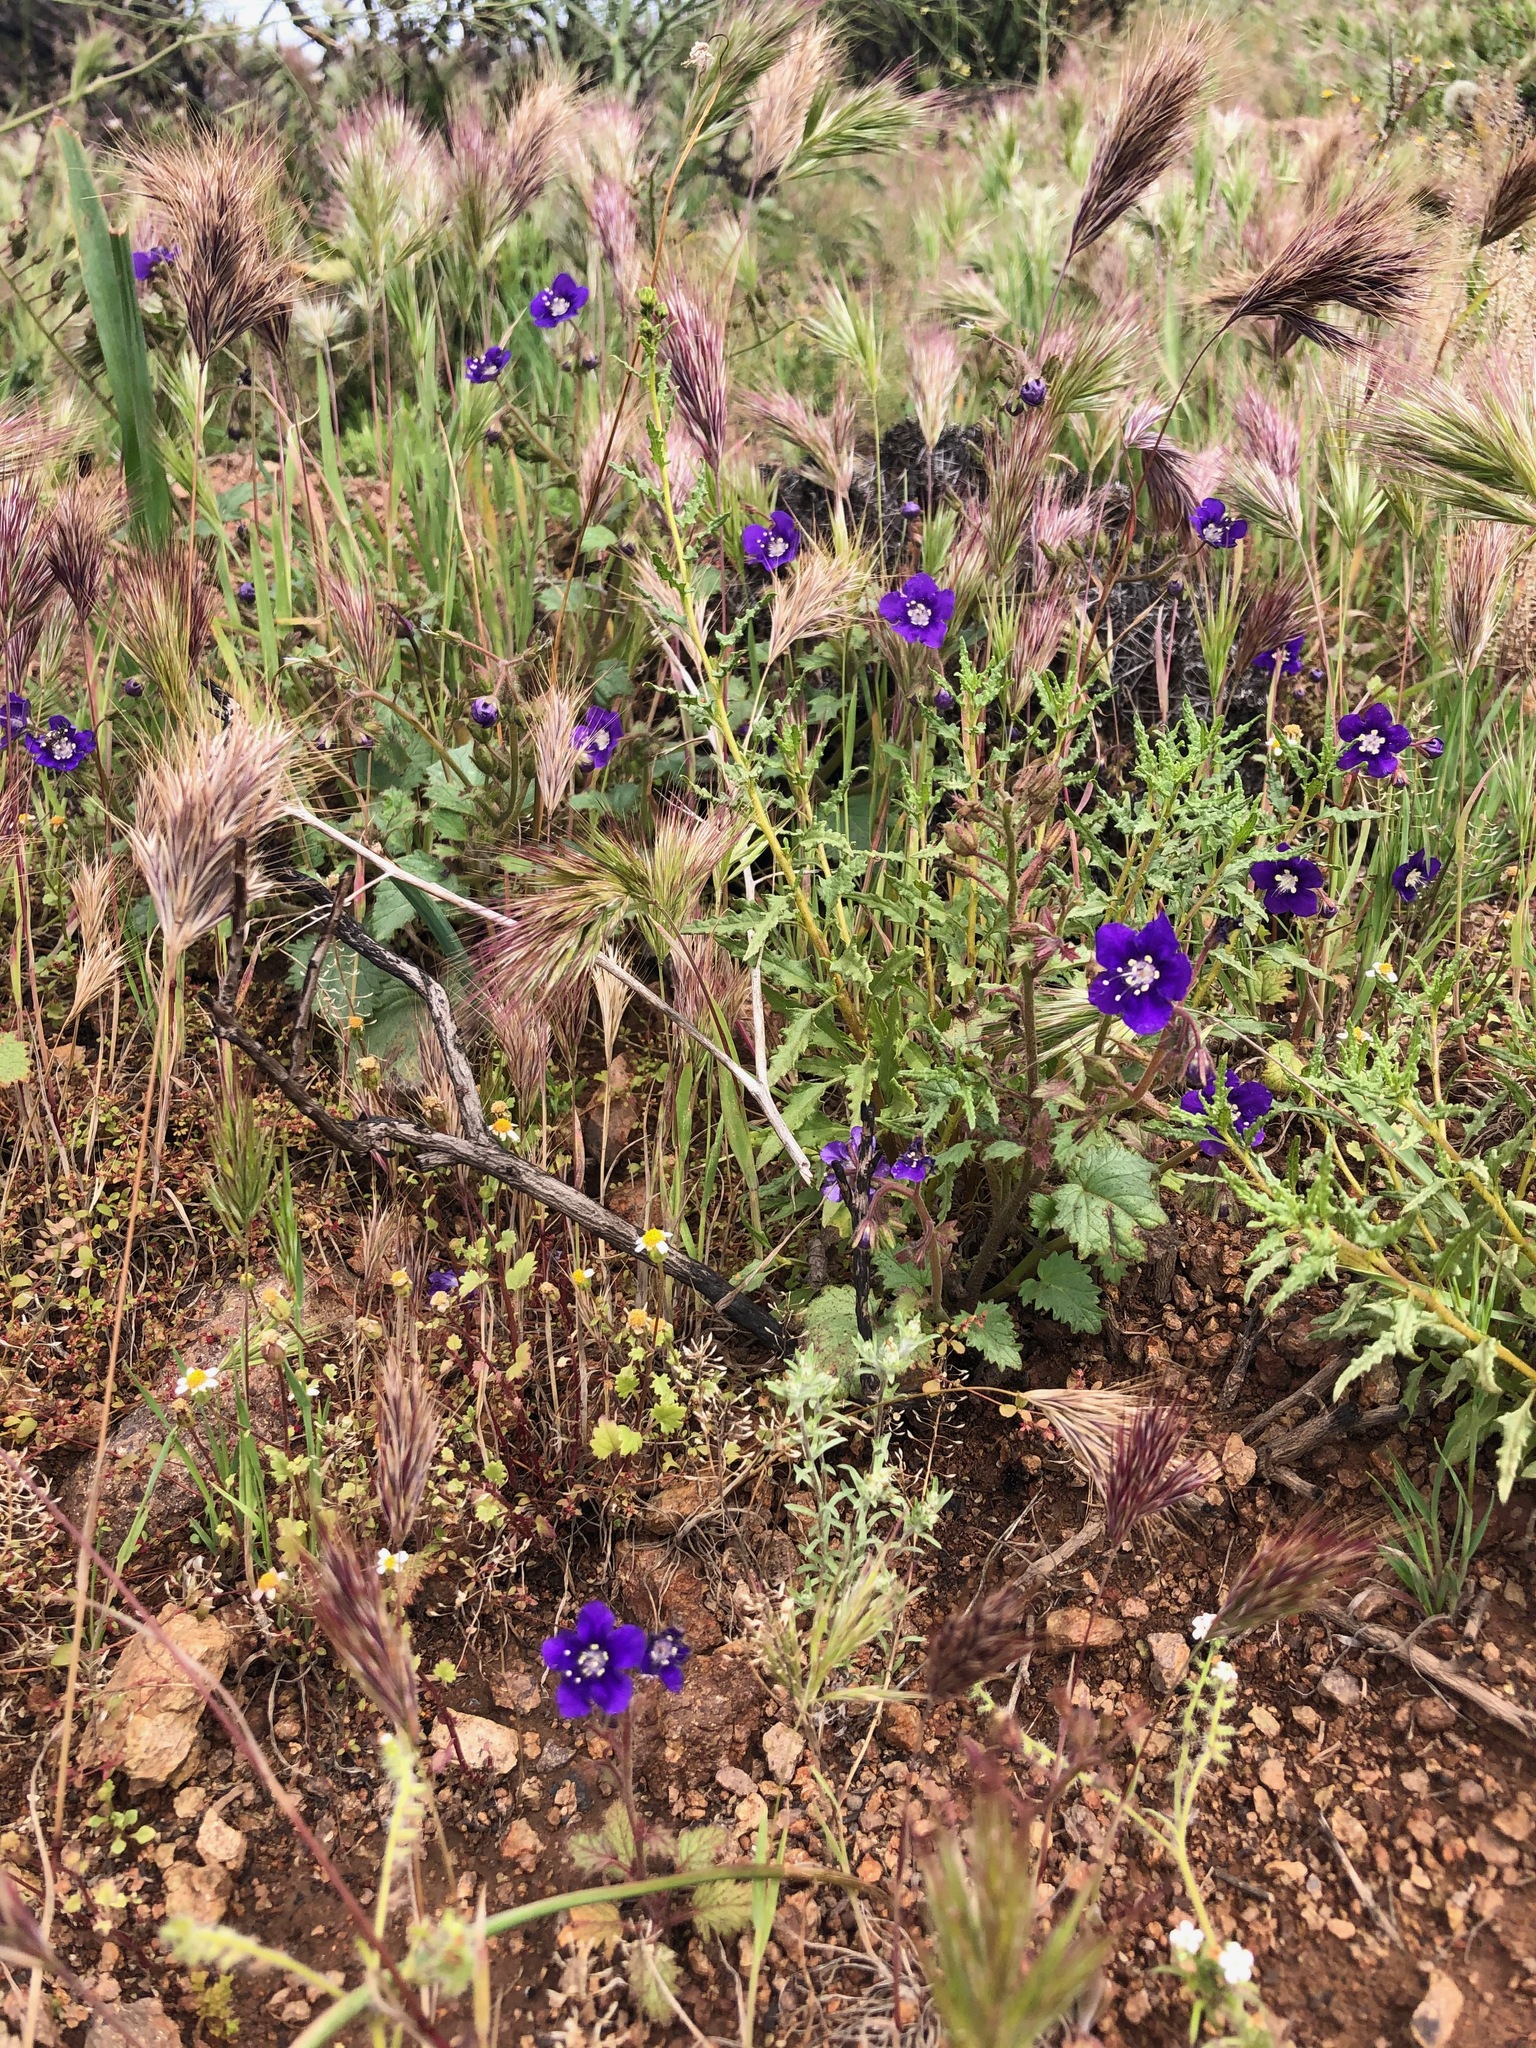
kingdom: Plantae
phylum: Tracheophyta
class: Magnoliopsida
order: Boraginales
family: Hydrophyllaceae
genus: Phacelia
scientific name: Phacelia parryi
